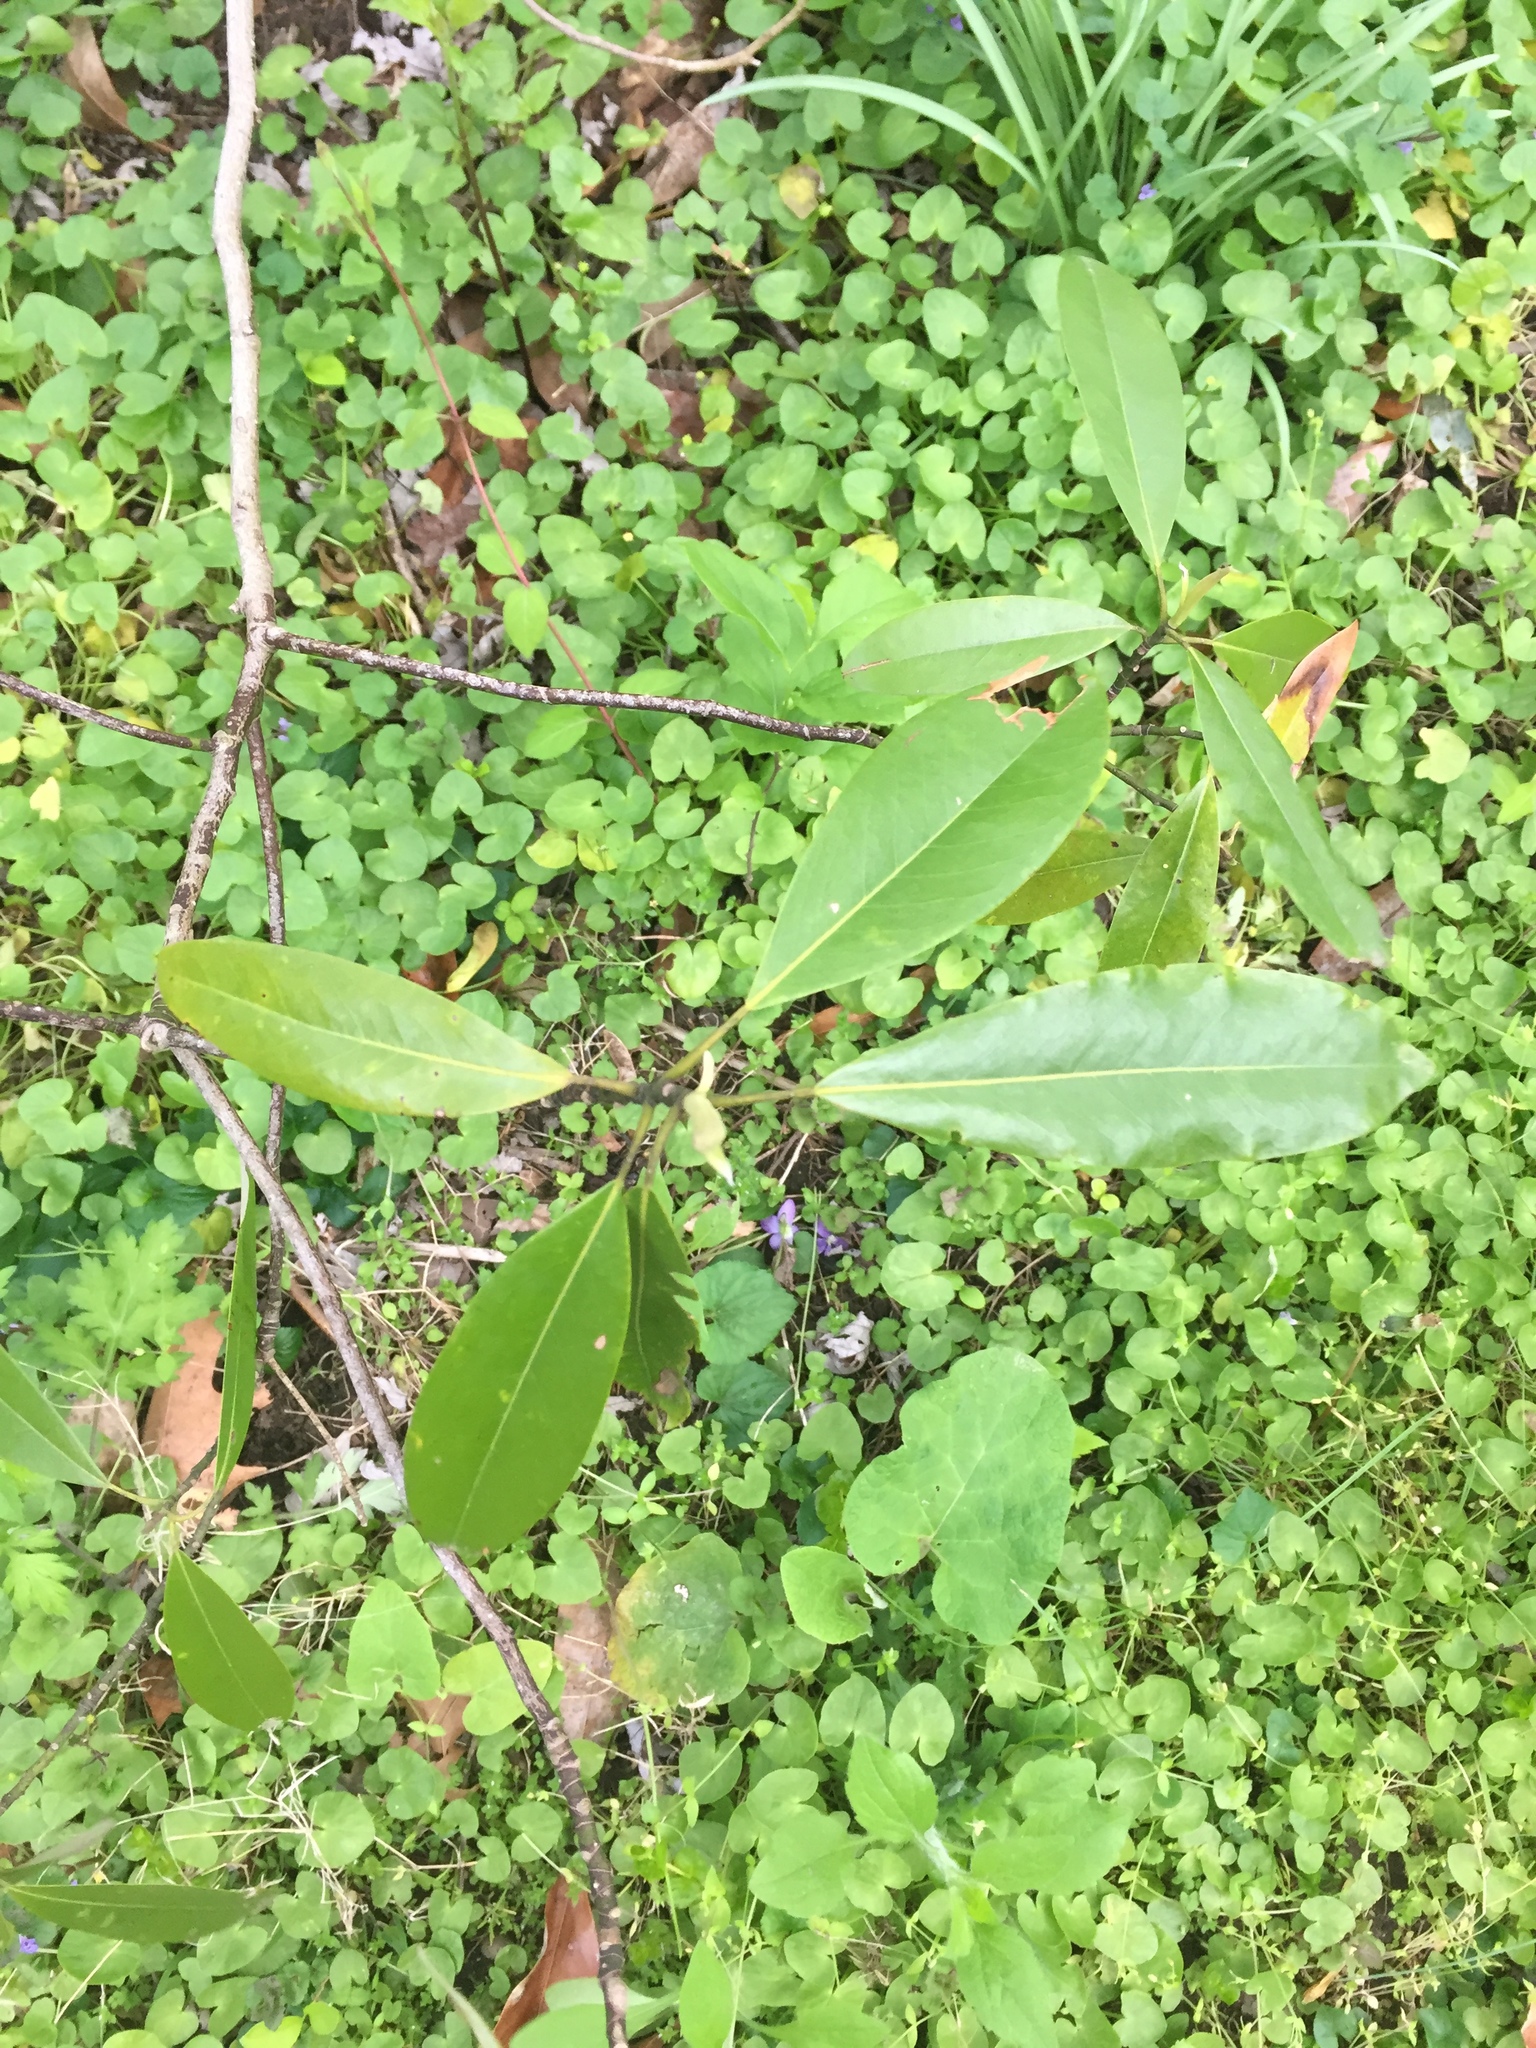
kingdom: Plantae
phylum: Tracheophyta
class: Magnoliopsida
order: Magnoliales
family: Magnoliaceae
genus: Magnolia
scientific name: Magnolia virginiana
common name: Swamp bay
